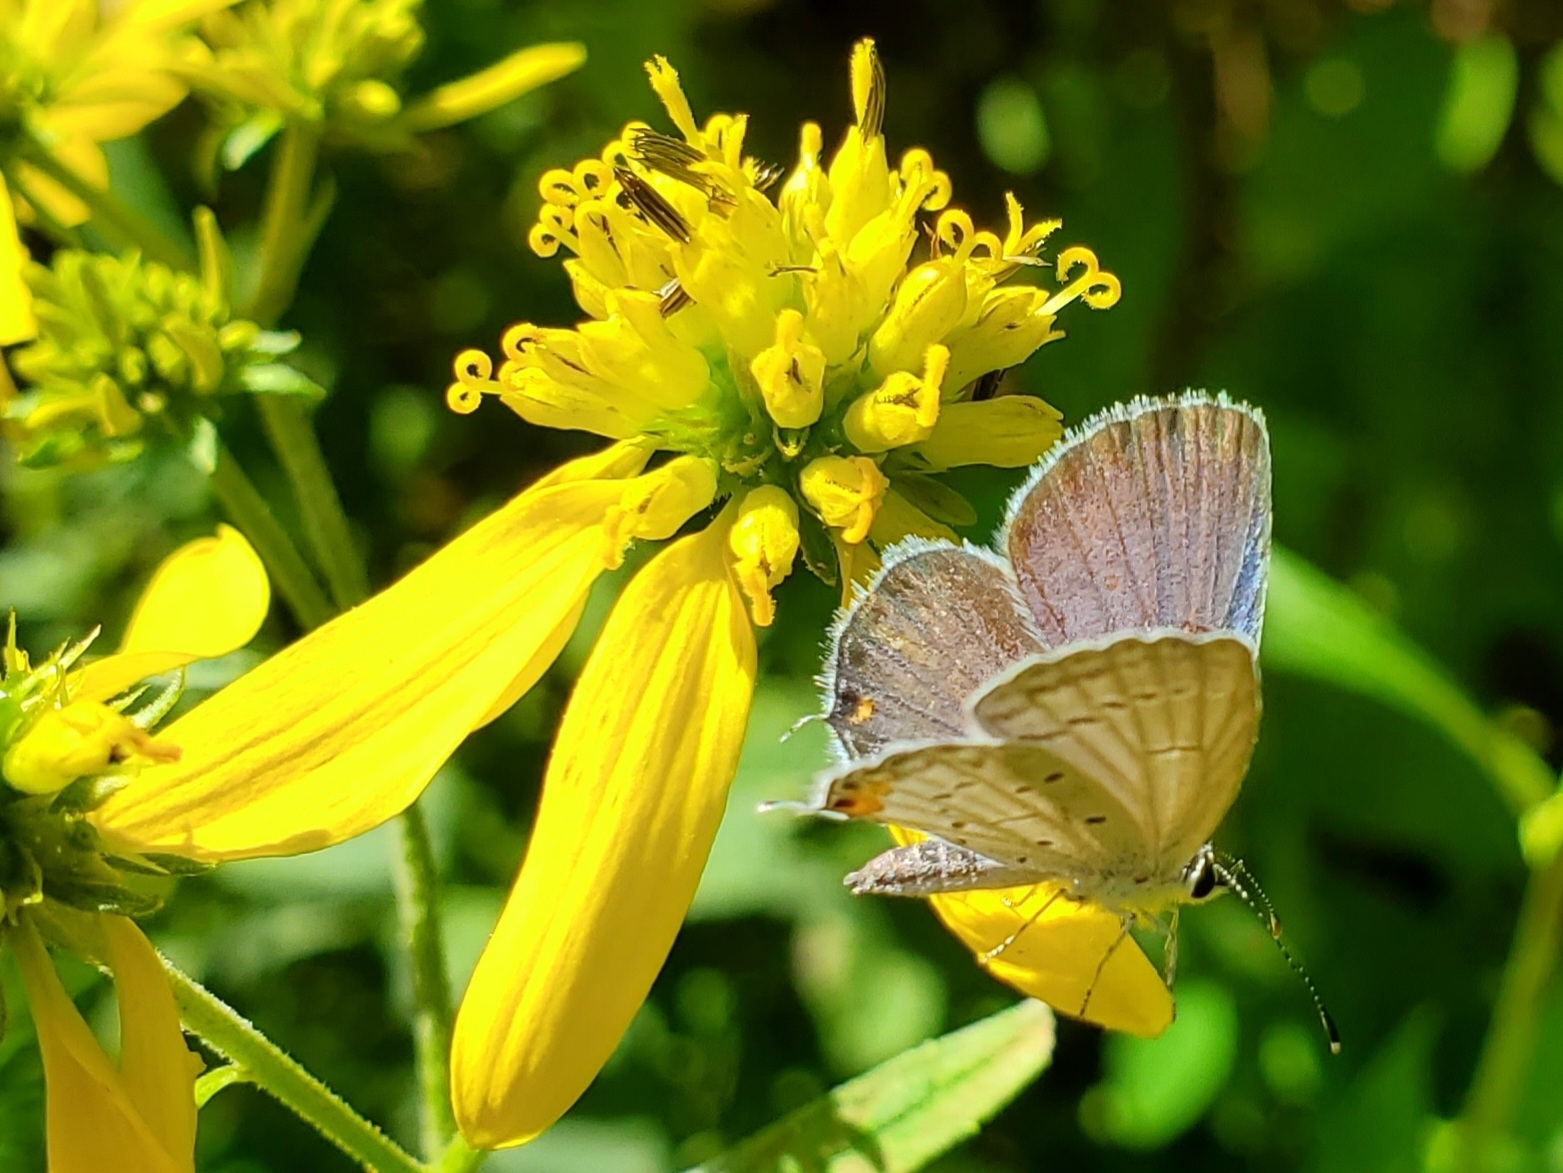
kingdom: Animalia
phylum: Arthropoda
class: Insecta
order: Lepidoptera
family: Lycaenidae
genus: Elkalyce
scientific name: Elkalyce comyntas
